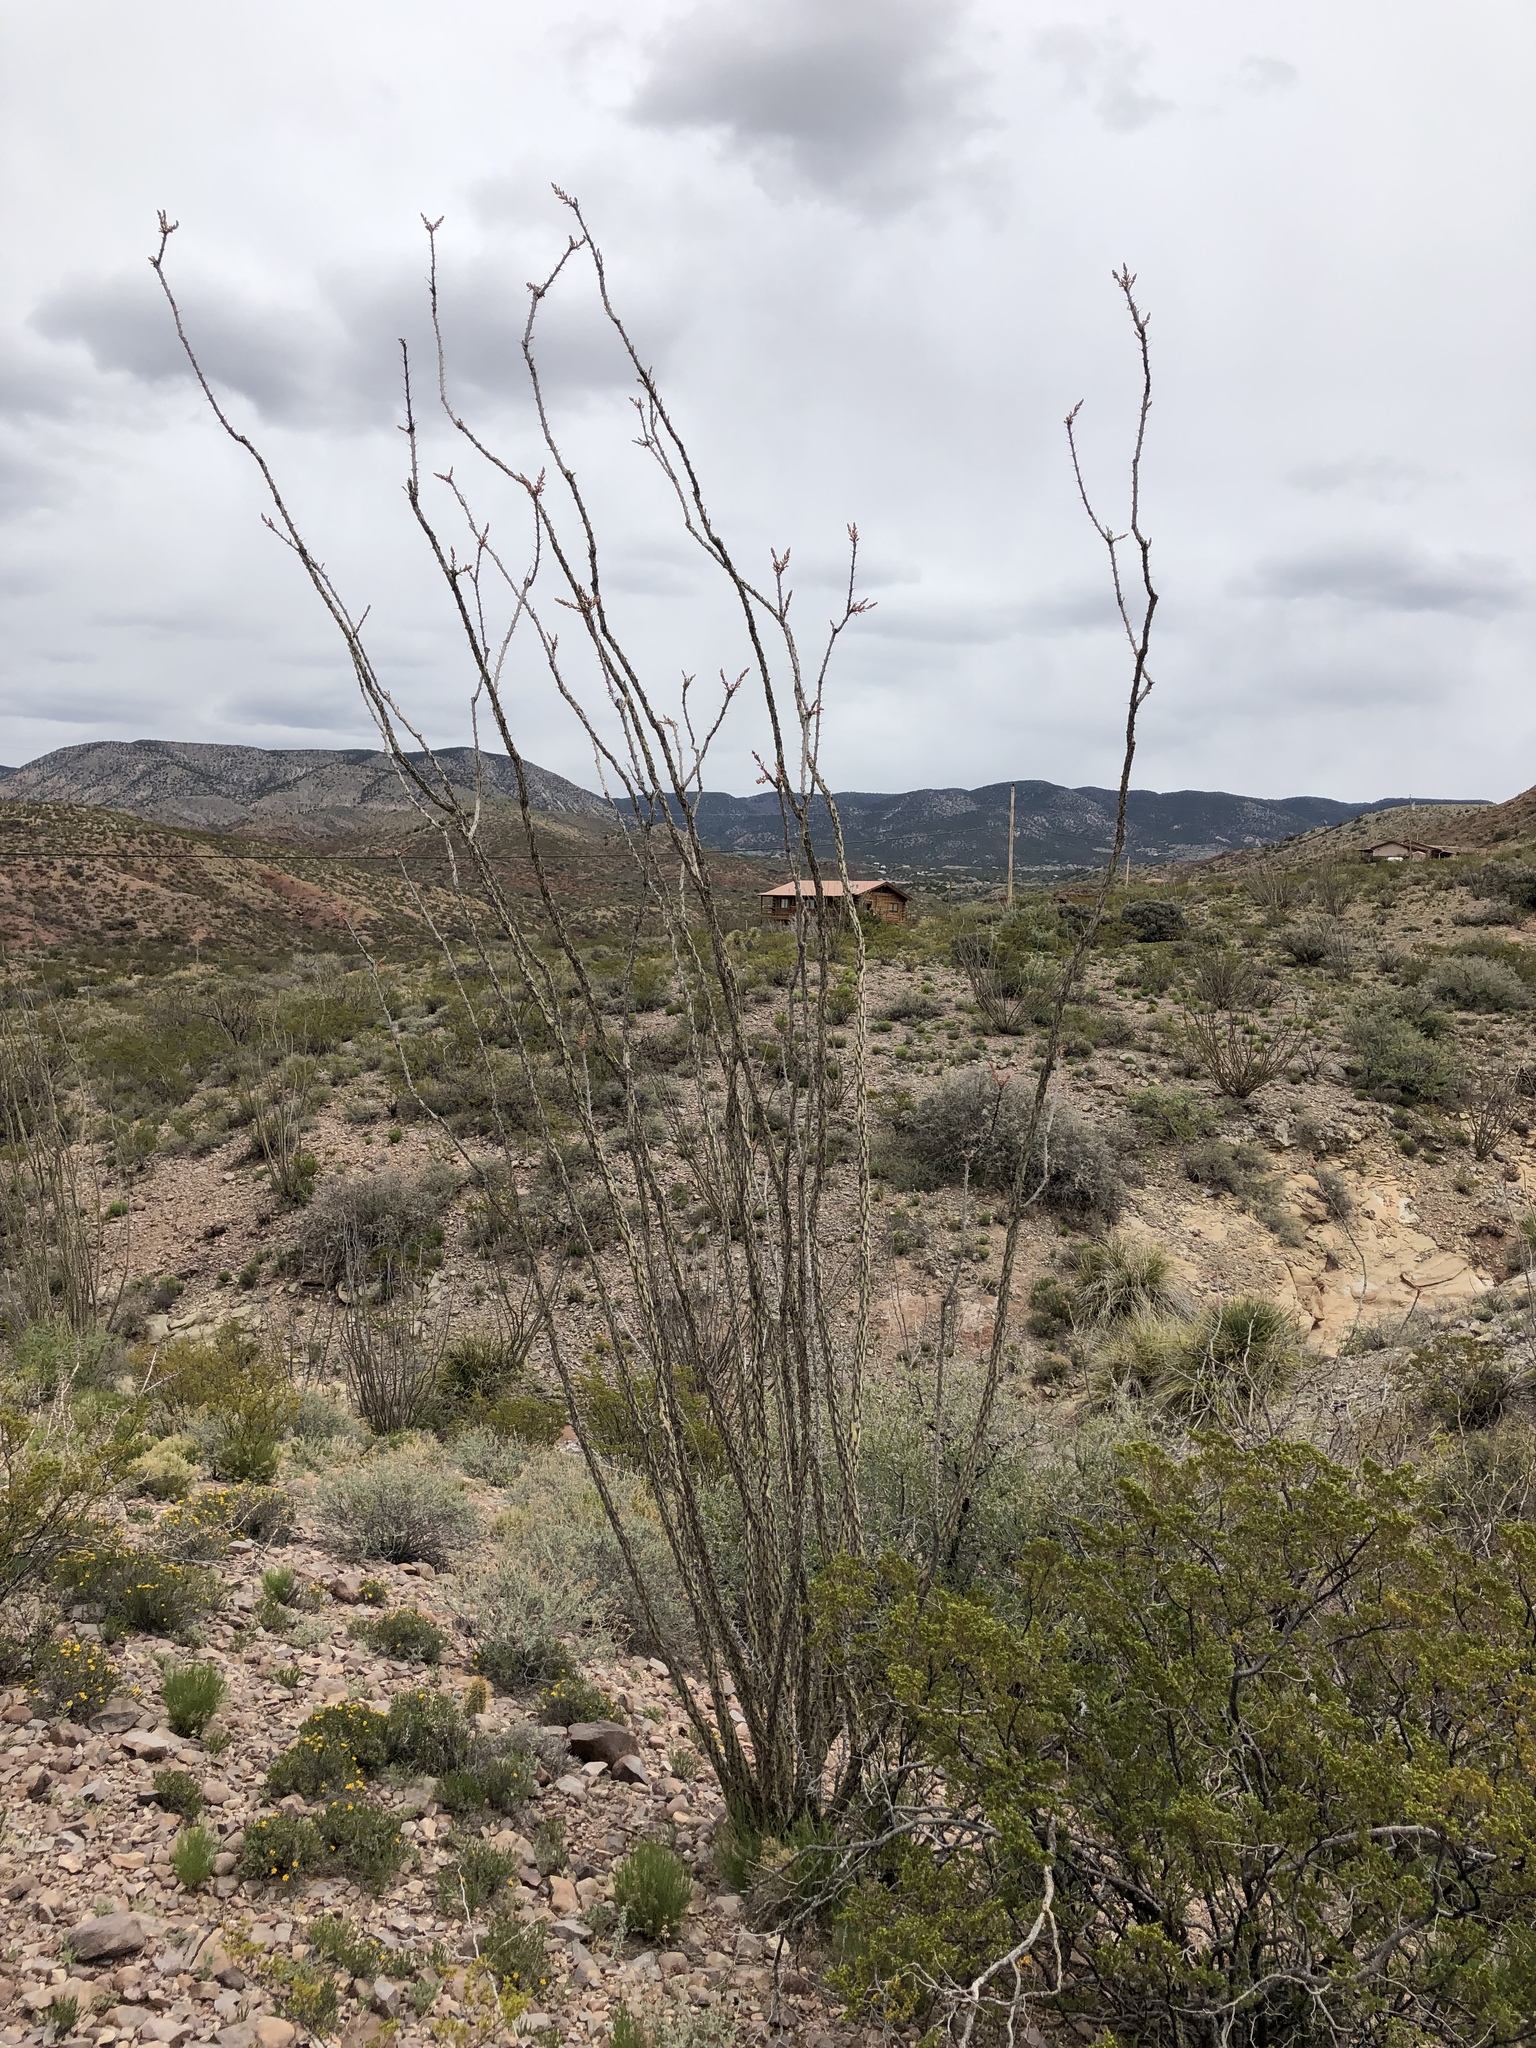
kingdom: Plantae
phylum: Tracheophyta
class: Magnoliopsida
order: Ericales
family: Fouquieriaceae
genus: Fouquieria
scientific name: Fouquieria splendens
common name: Vine-cactus
